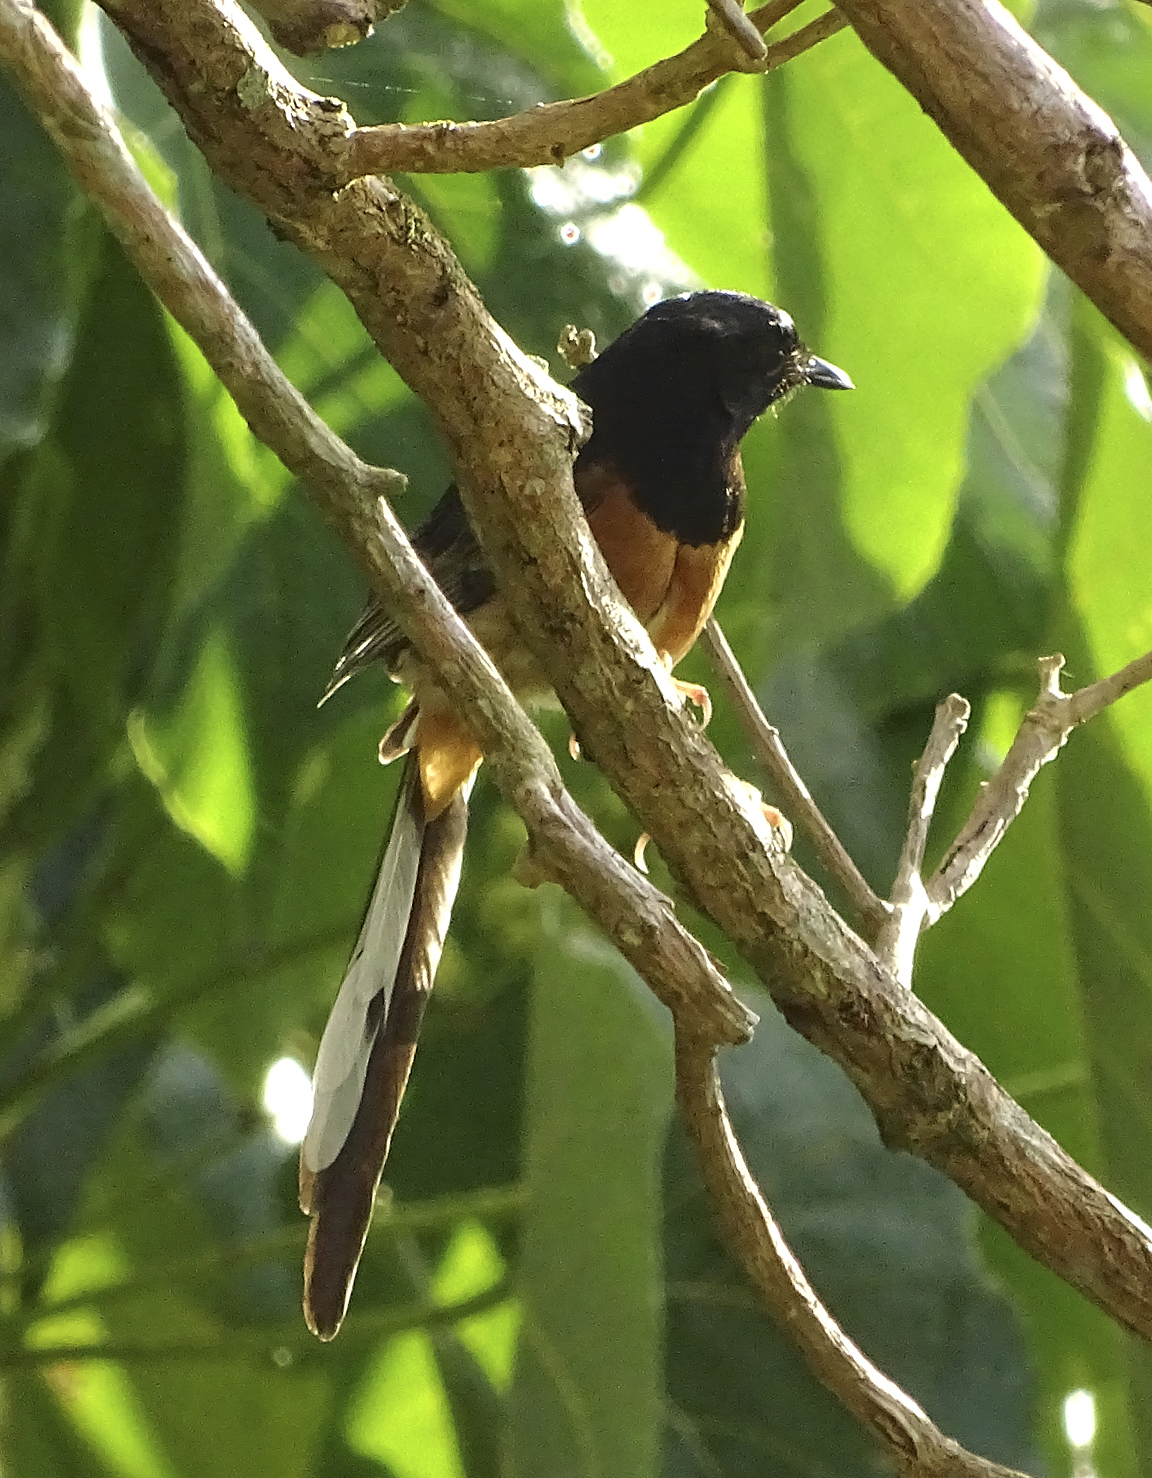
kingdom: Animalia
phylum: Chordata
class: Aves
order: Passeriformes
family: Muscicapidae
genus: Copsychus
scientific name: Copsychus malabaricus
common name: White-rumped shama
